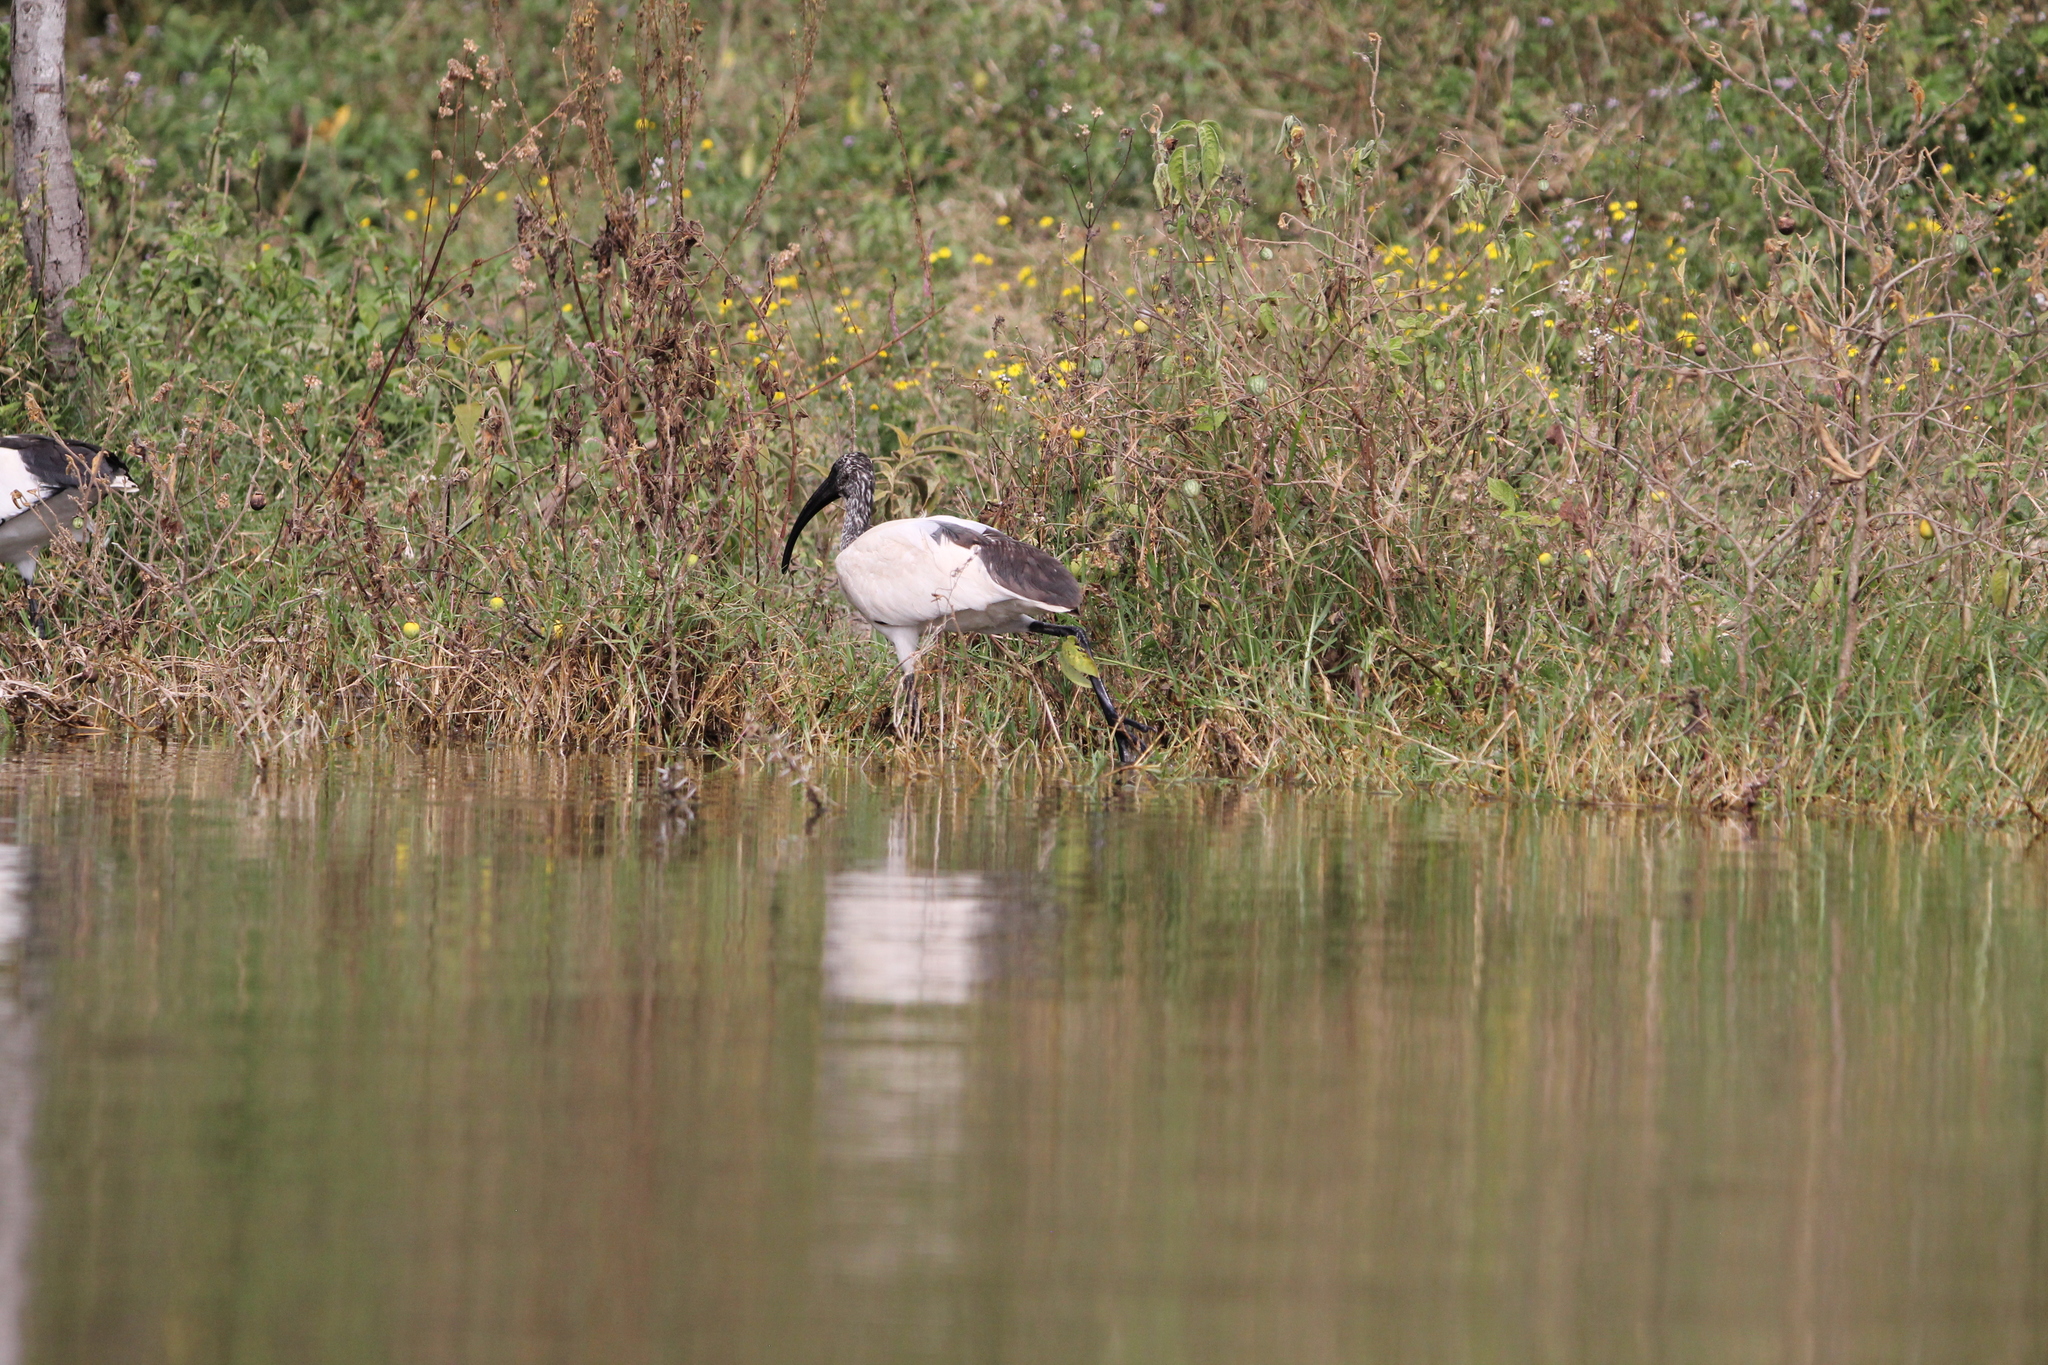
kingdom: Animalia
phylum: Chordata
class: Aves
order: Pelecaniformes
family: Threskiornithidae
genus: Threskiornis
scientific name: Threskiornis aethiopicus
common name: Sacred ibis
